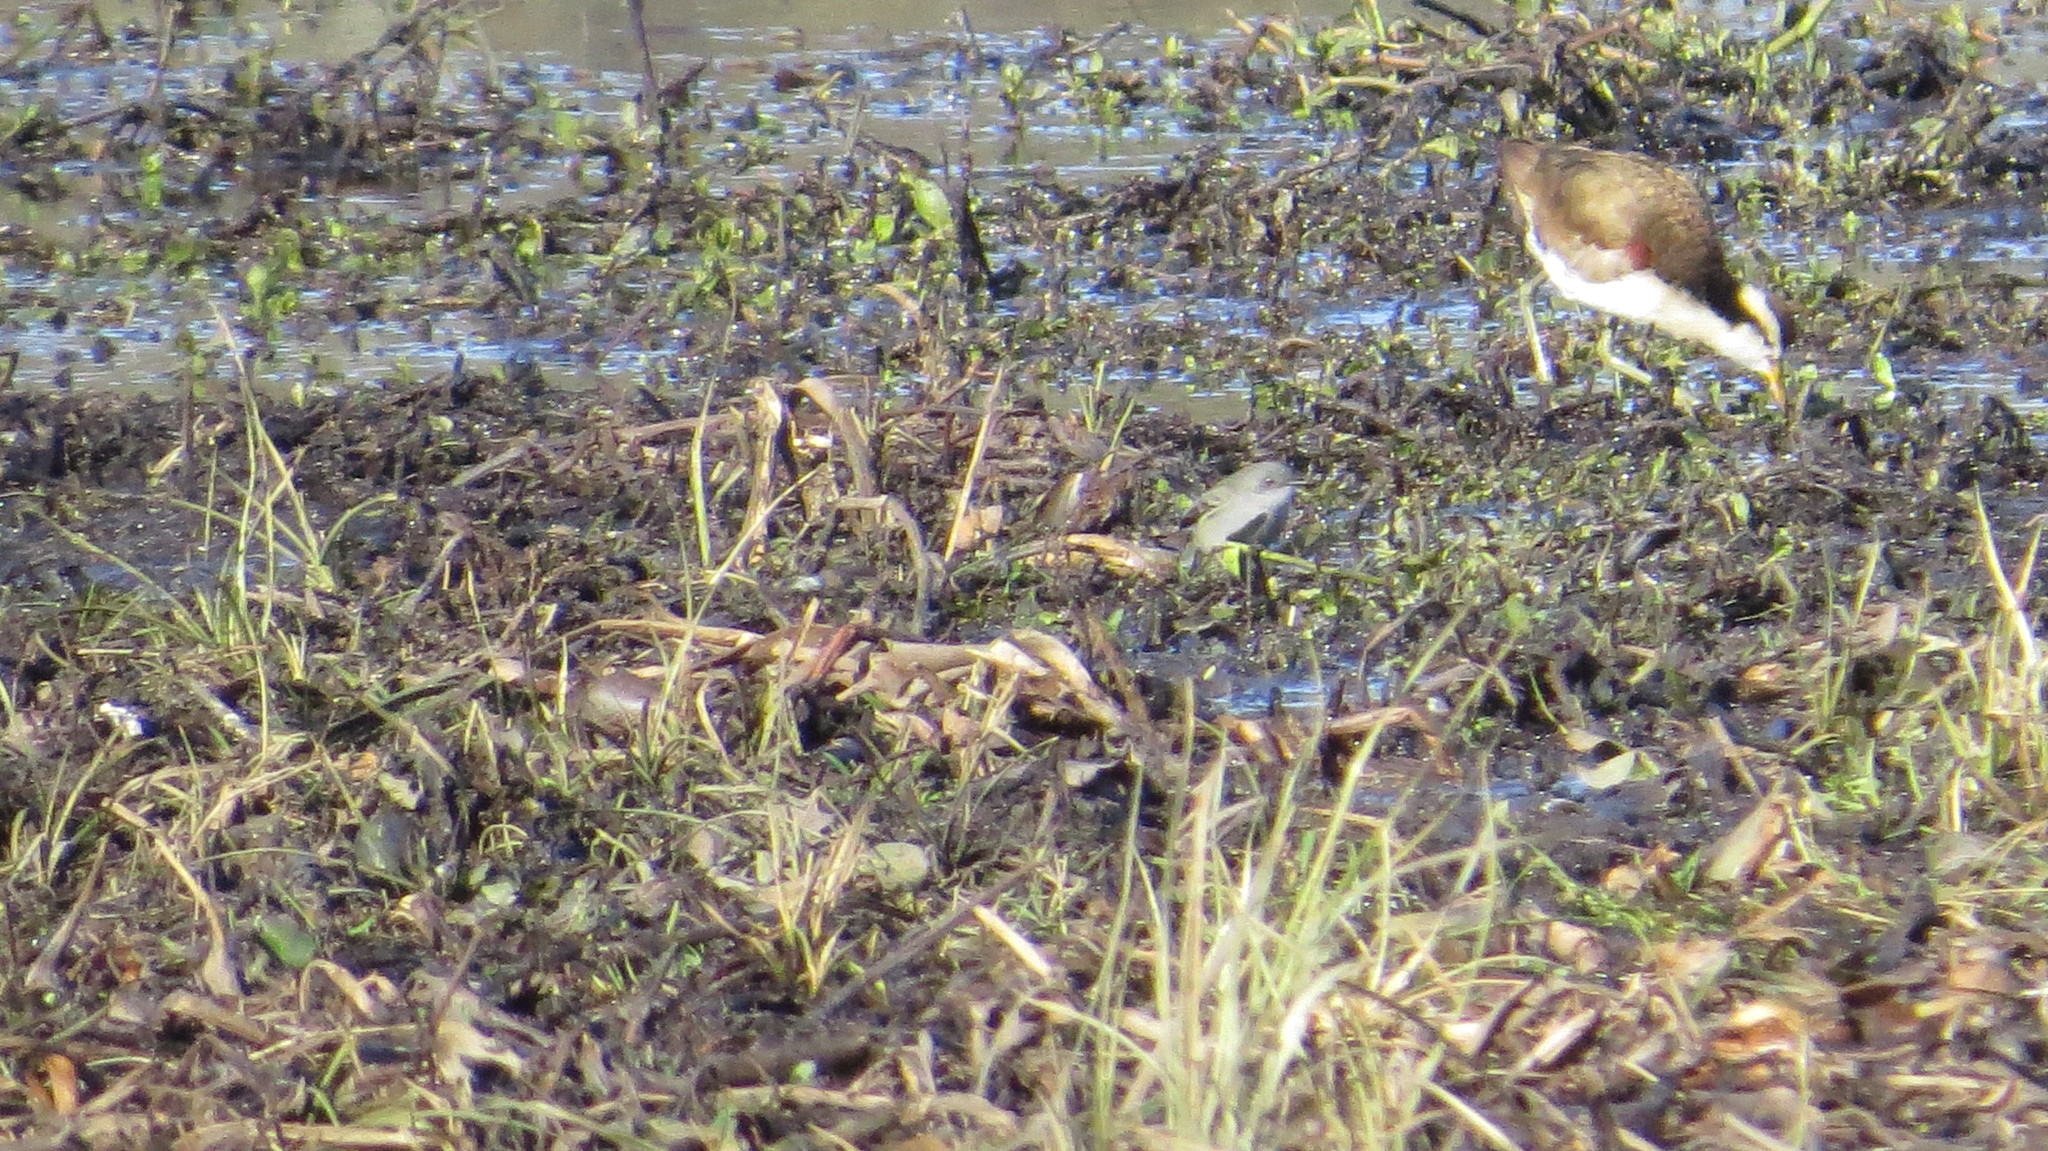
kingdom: Animalia
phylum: Chordata
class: Aves
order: Charadriiformes
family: Jacanidae
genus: Jacana
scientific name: Jacana jacana
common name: Wattled jacana
